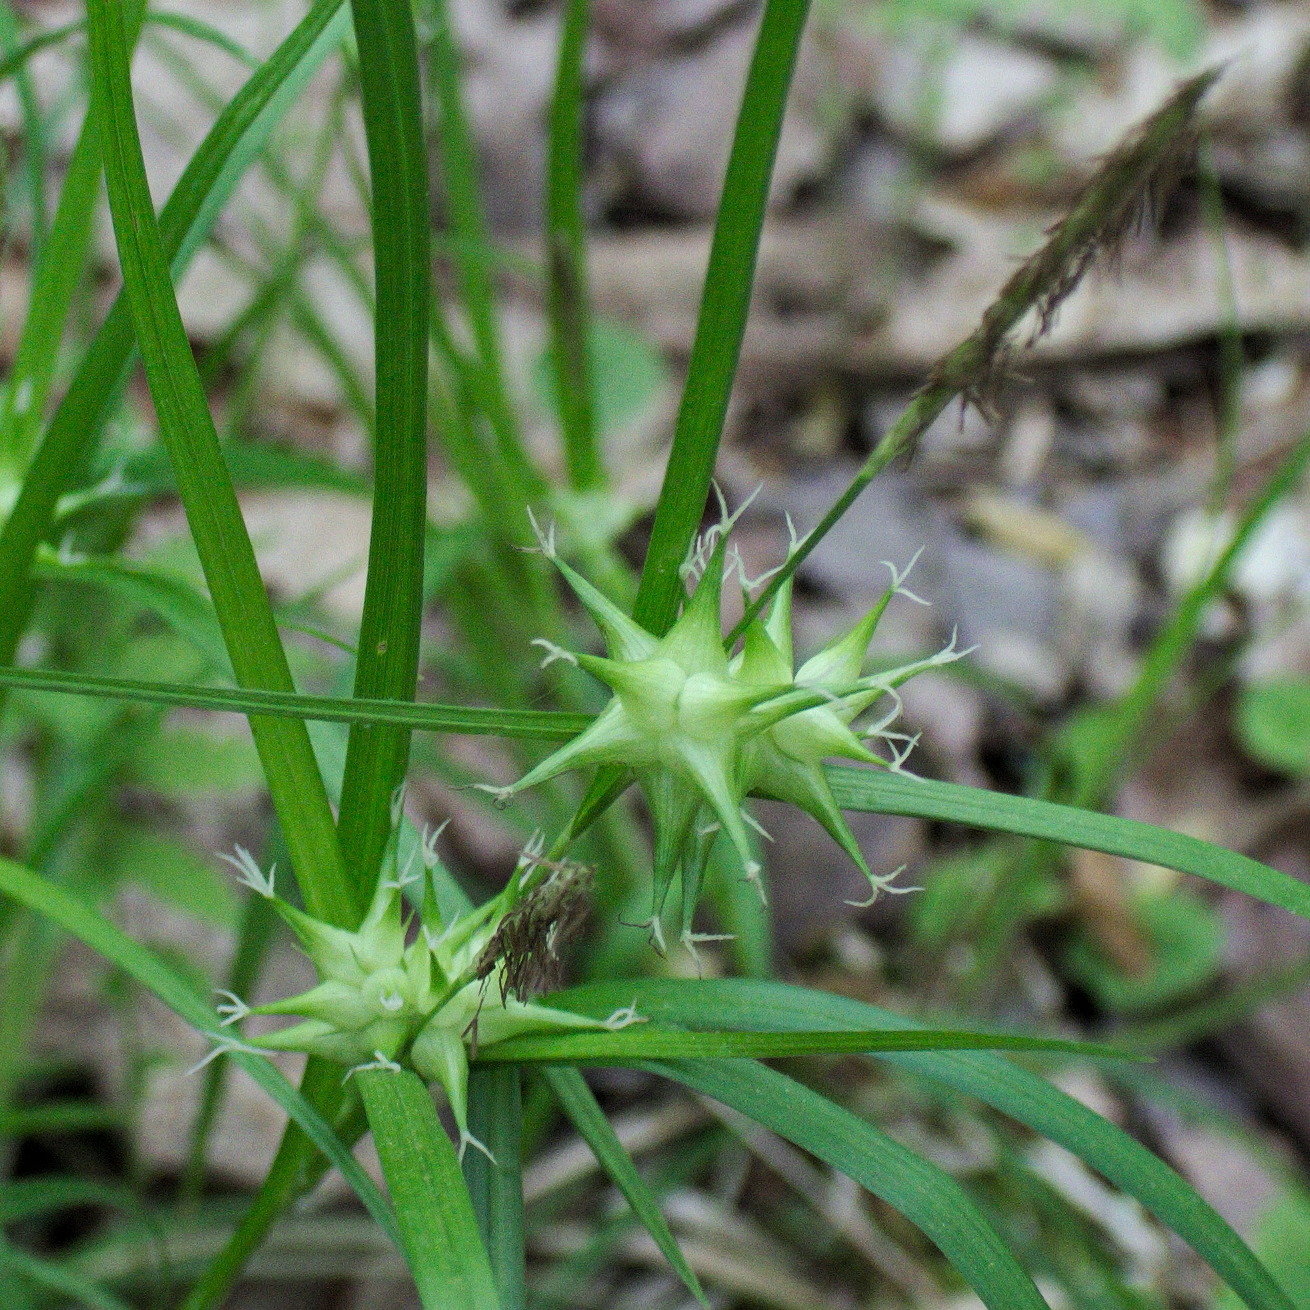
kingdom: Plantae
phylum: Tracheophyta
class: Liliopsida
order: Poales
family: Cyperaceae
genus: Carex
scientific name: Carex grayi
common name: Asa gray's sedge
